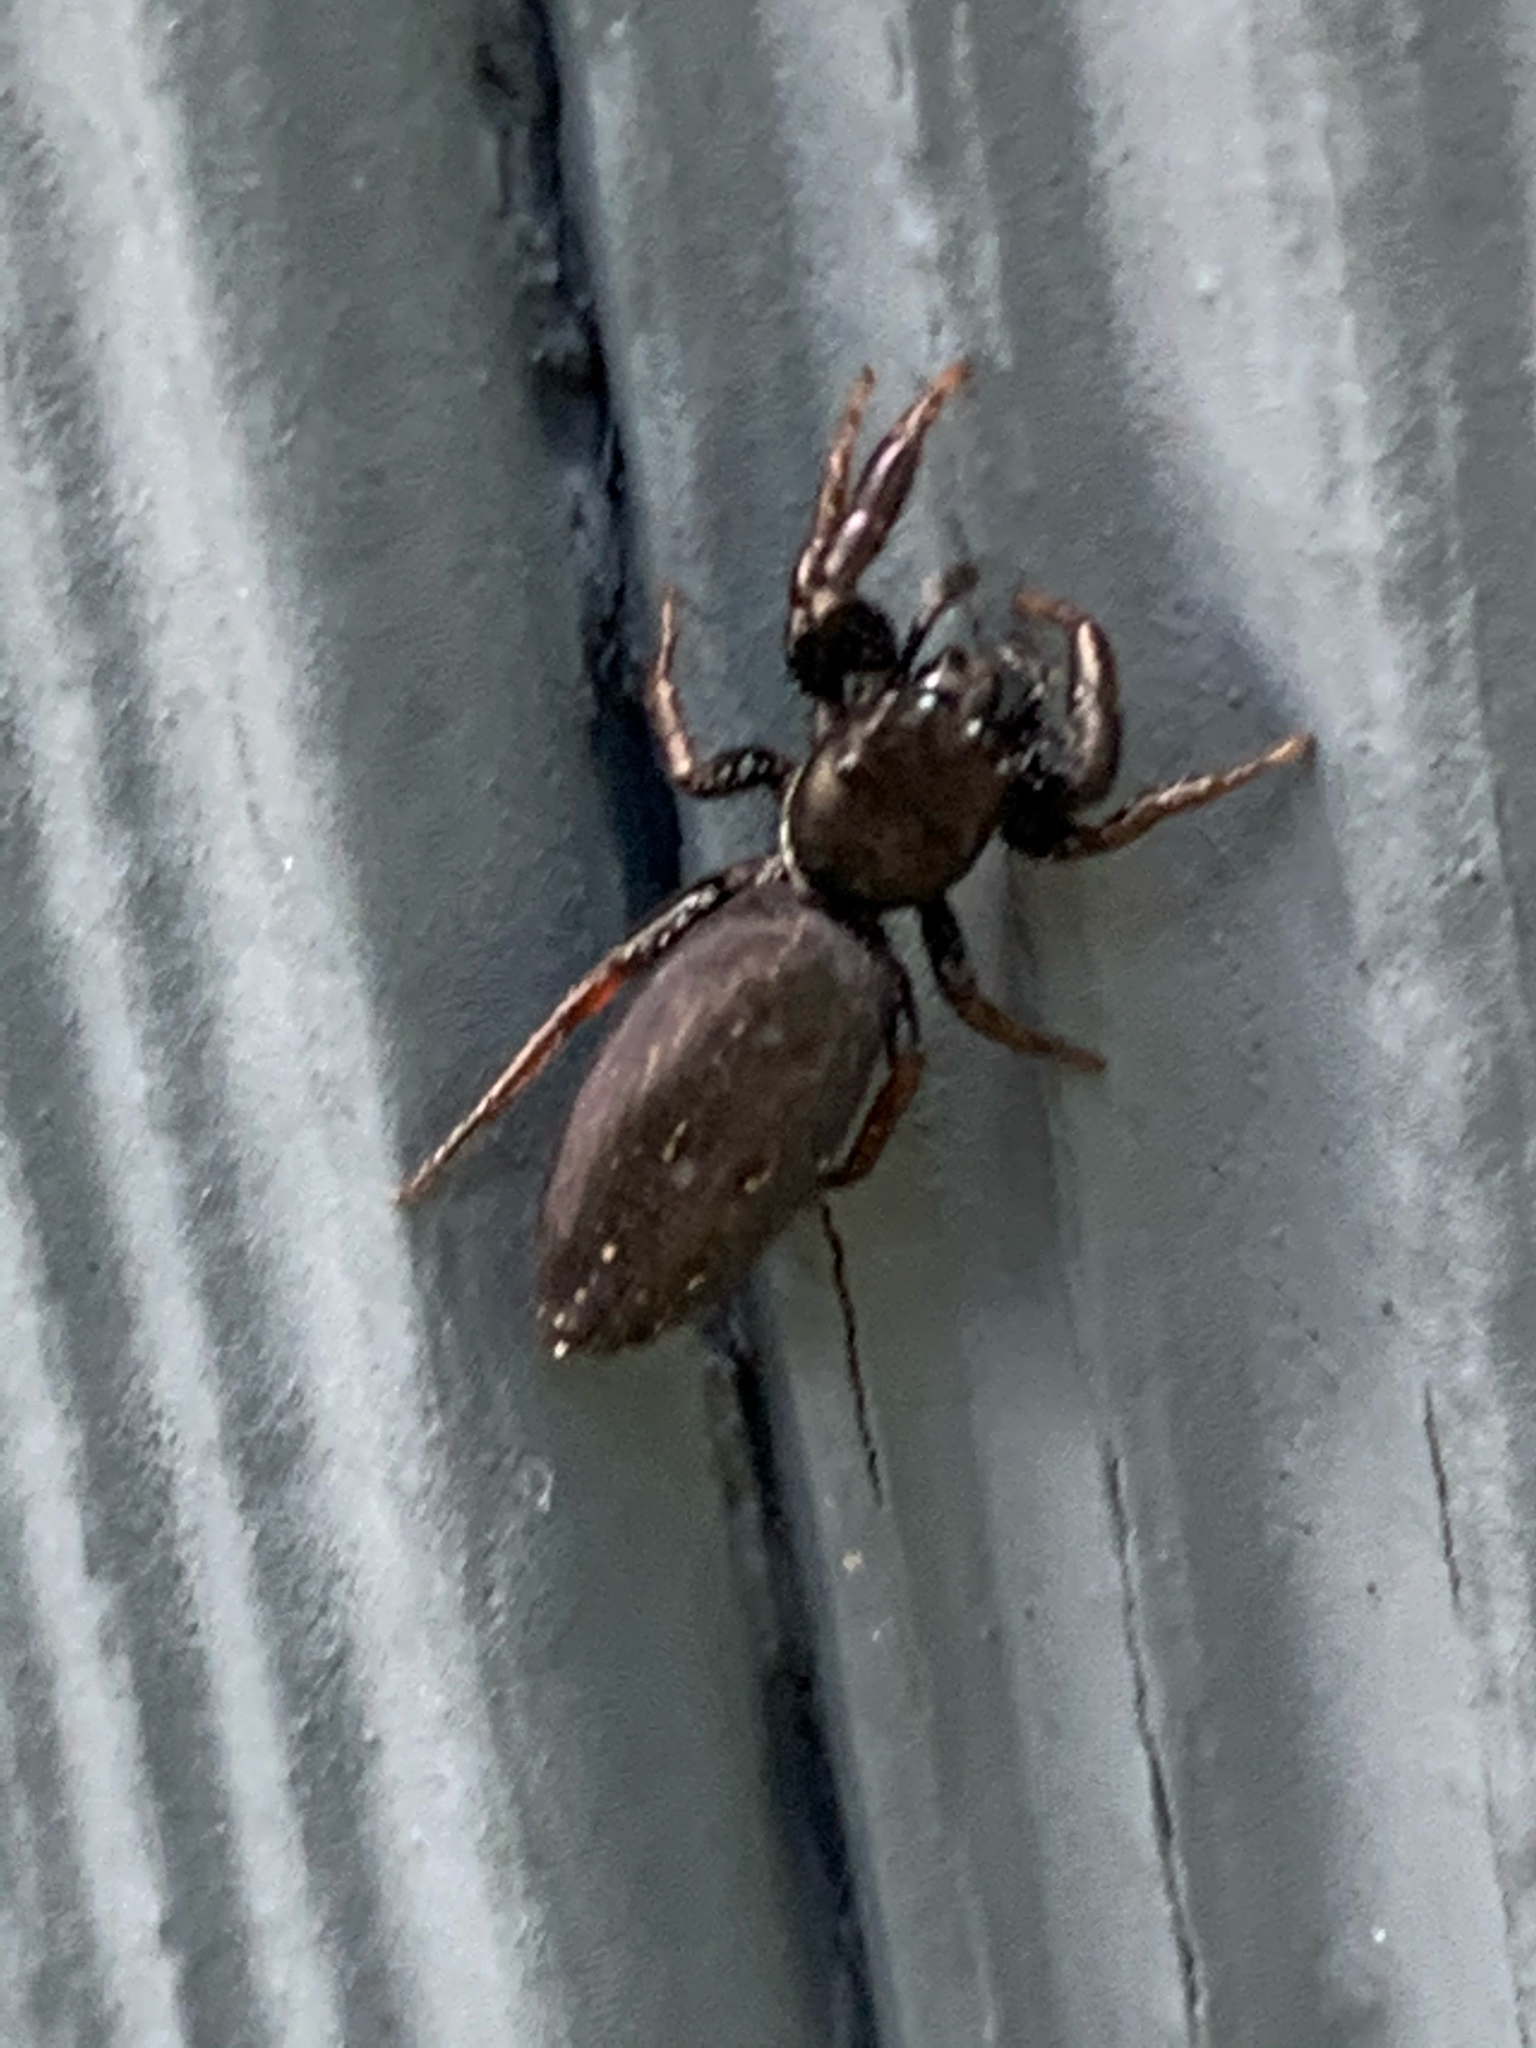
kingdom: Animalia
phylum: Arthropoda
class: Arachnida
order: Araneae
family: Salticidae
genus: Metacyrba
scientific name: Metacyrba taeniola
